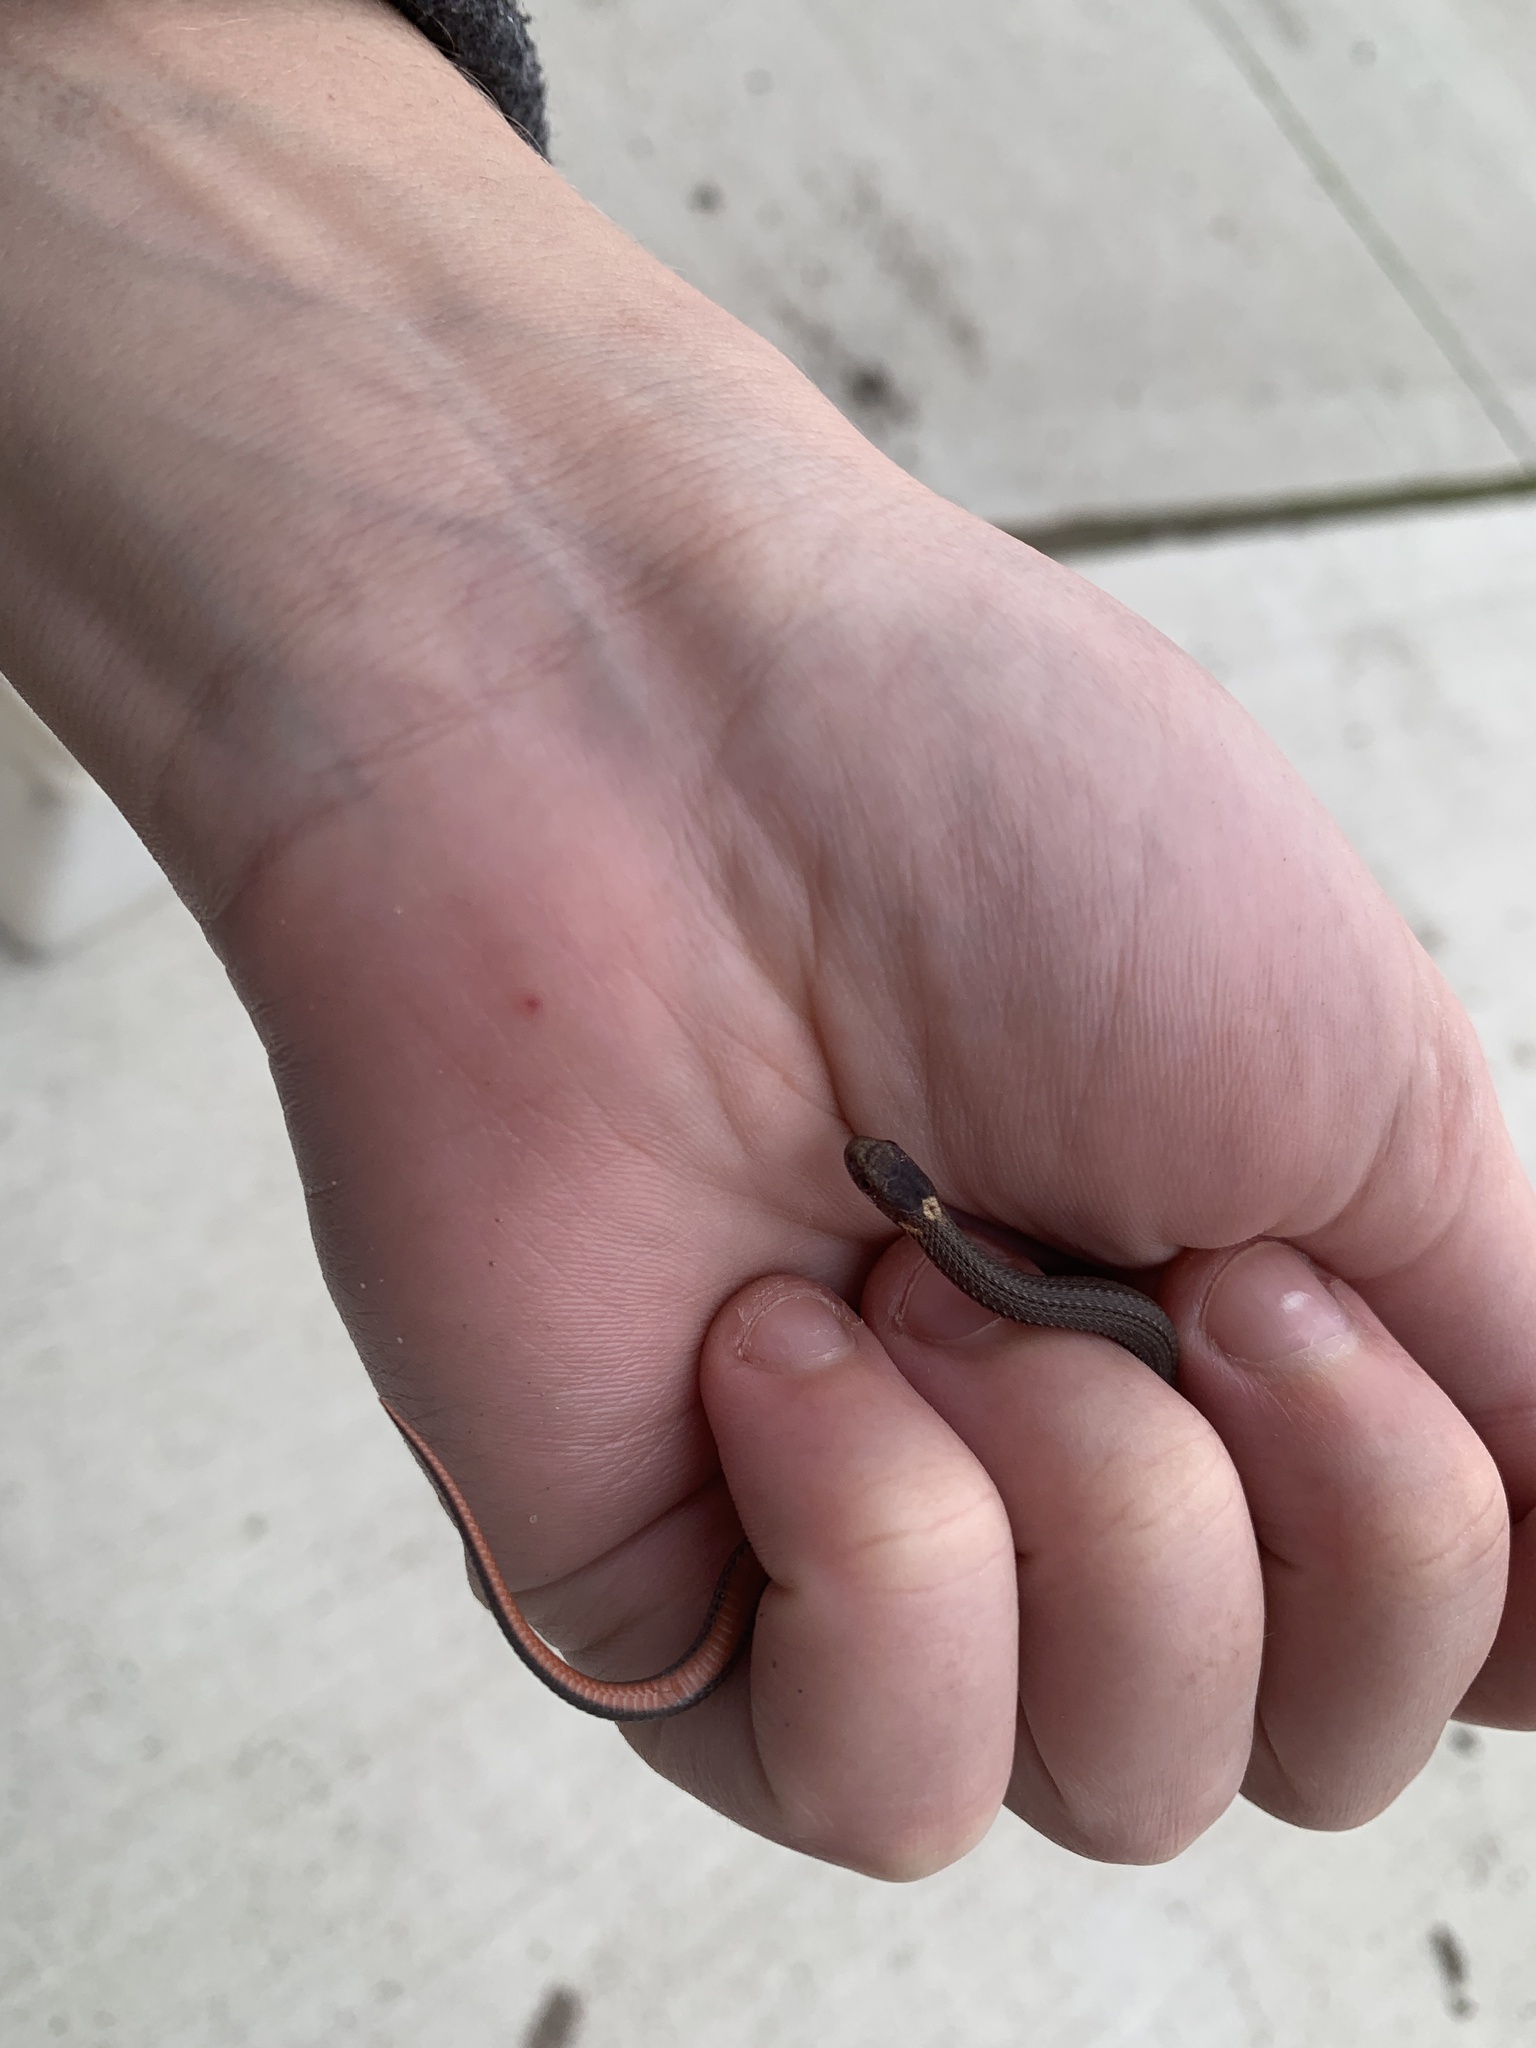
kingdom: Animalia
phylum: Chordata
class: Squamata
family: Colubridae
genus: Storeria
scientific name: Storeria occipitomaculata
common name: Redbelly snake
